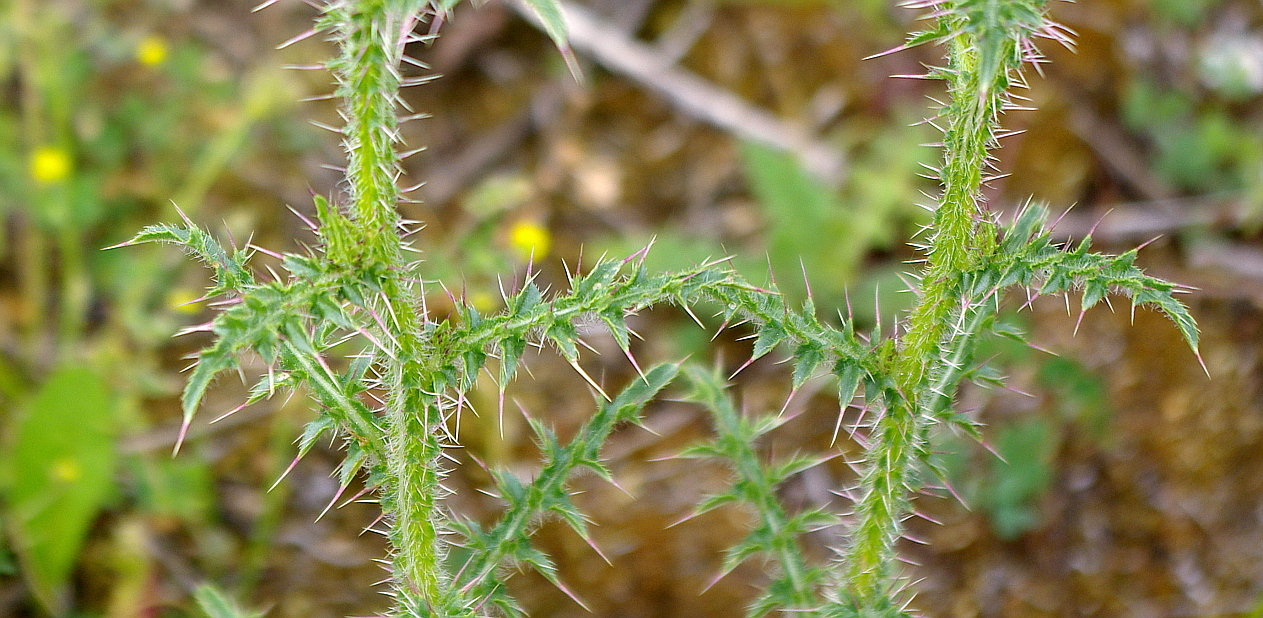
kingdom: Plantae
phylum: Tracheophyta
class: Magnoliopsida
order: Asterales
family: Asteraceae
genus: Carduus
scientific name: Carduus acanthoides
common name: Plumeless thistle
